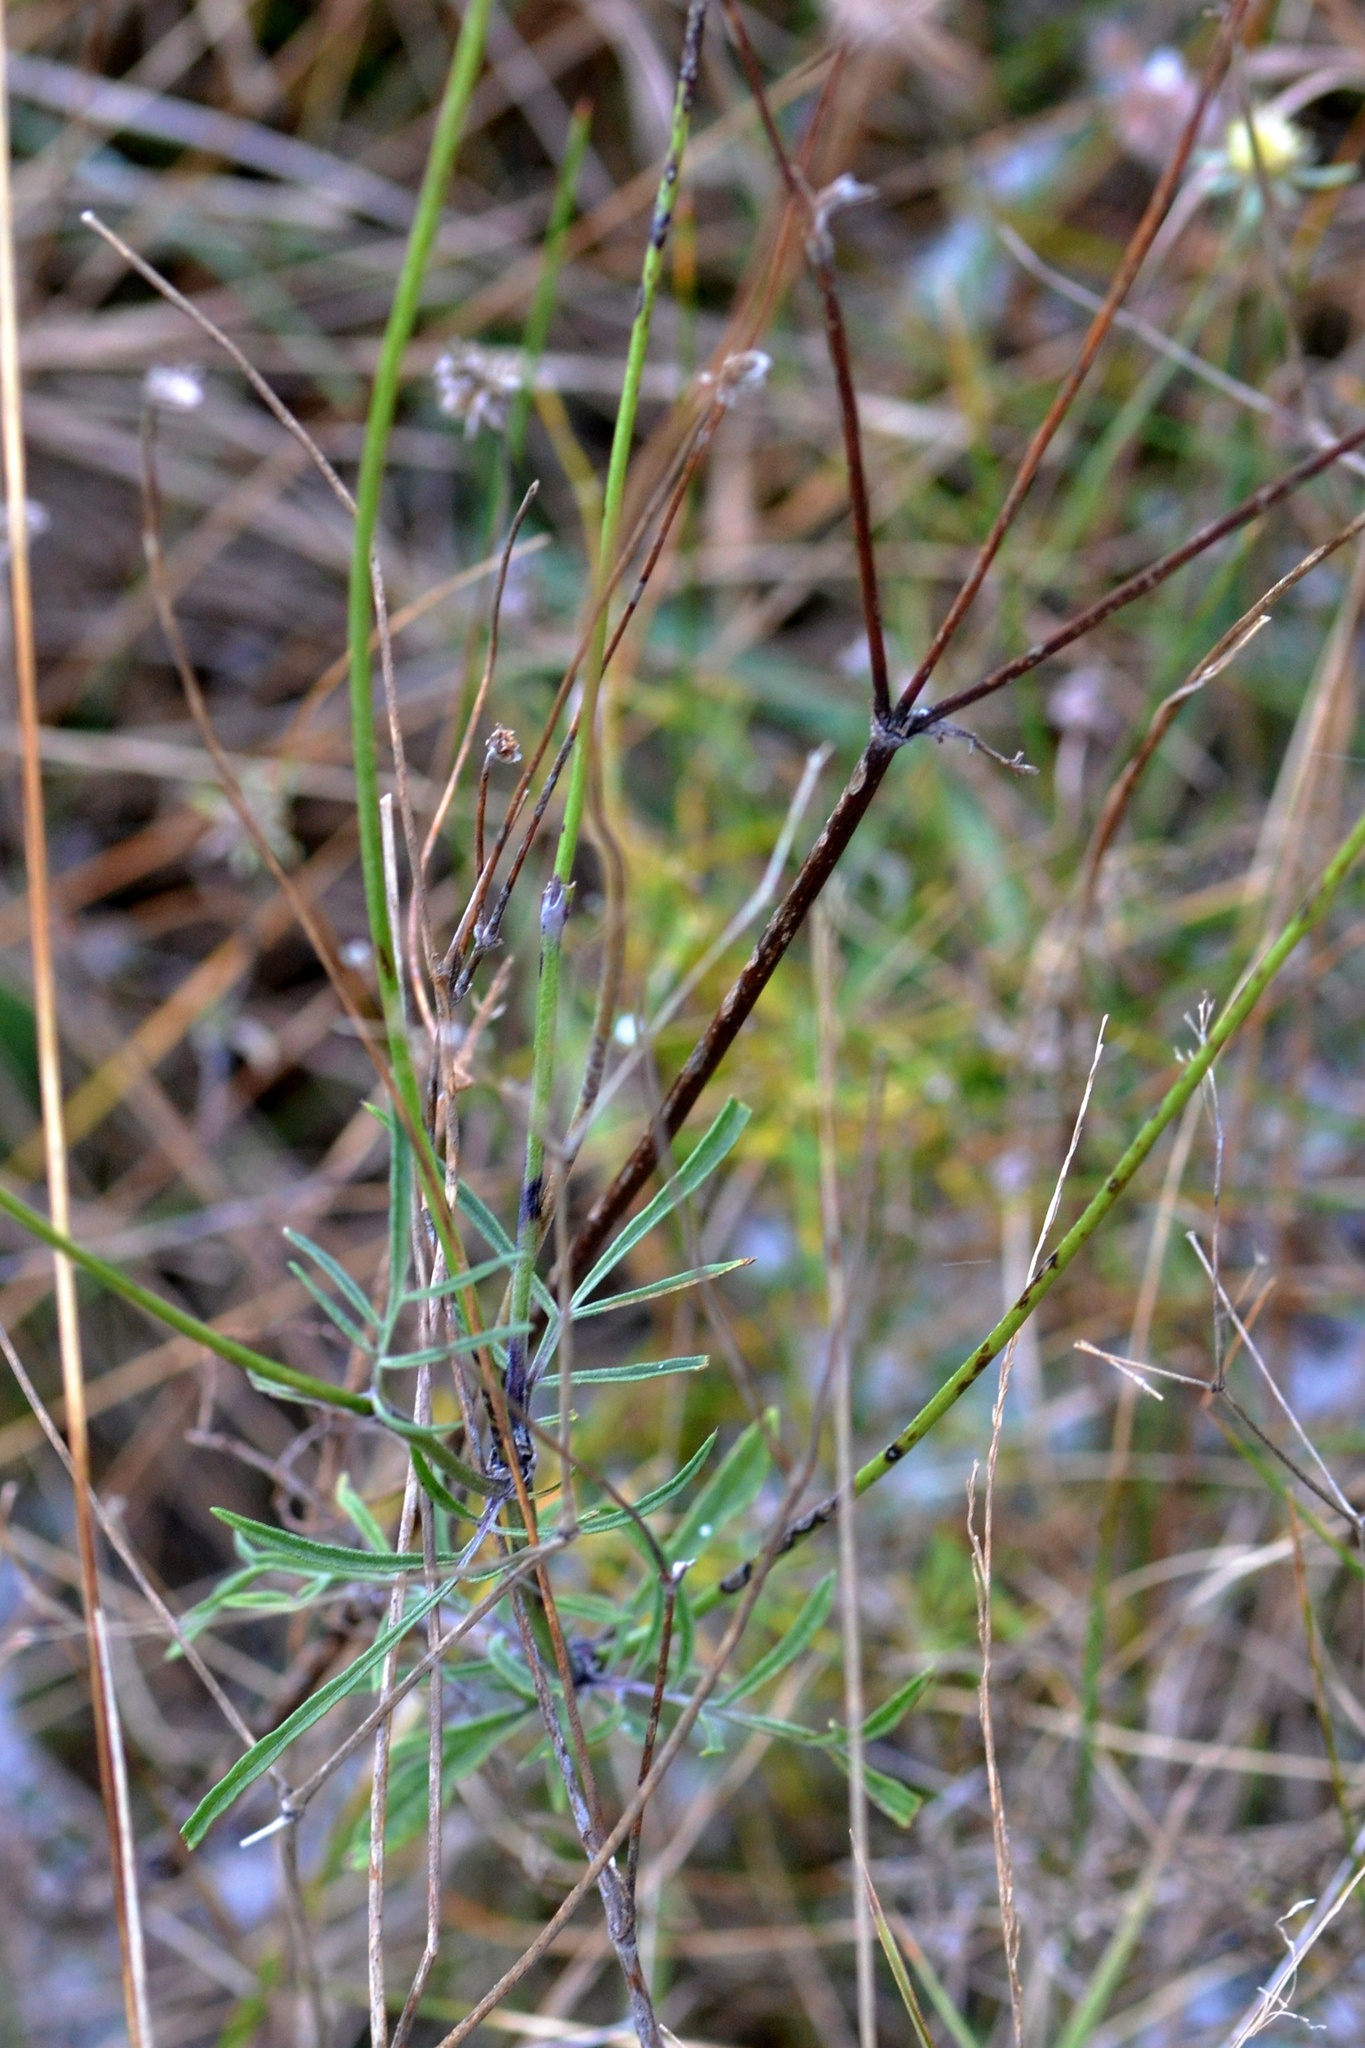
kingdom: Plantae
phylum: Tracheophyta
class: Magnoliopsida
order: Dipsacales
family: Caprifoliaceae
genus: Scabiosa
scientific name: Scabiosa ochroleuca
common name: Cream pincushions
